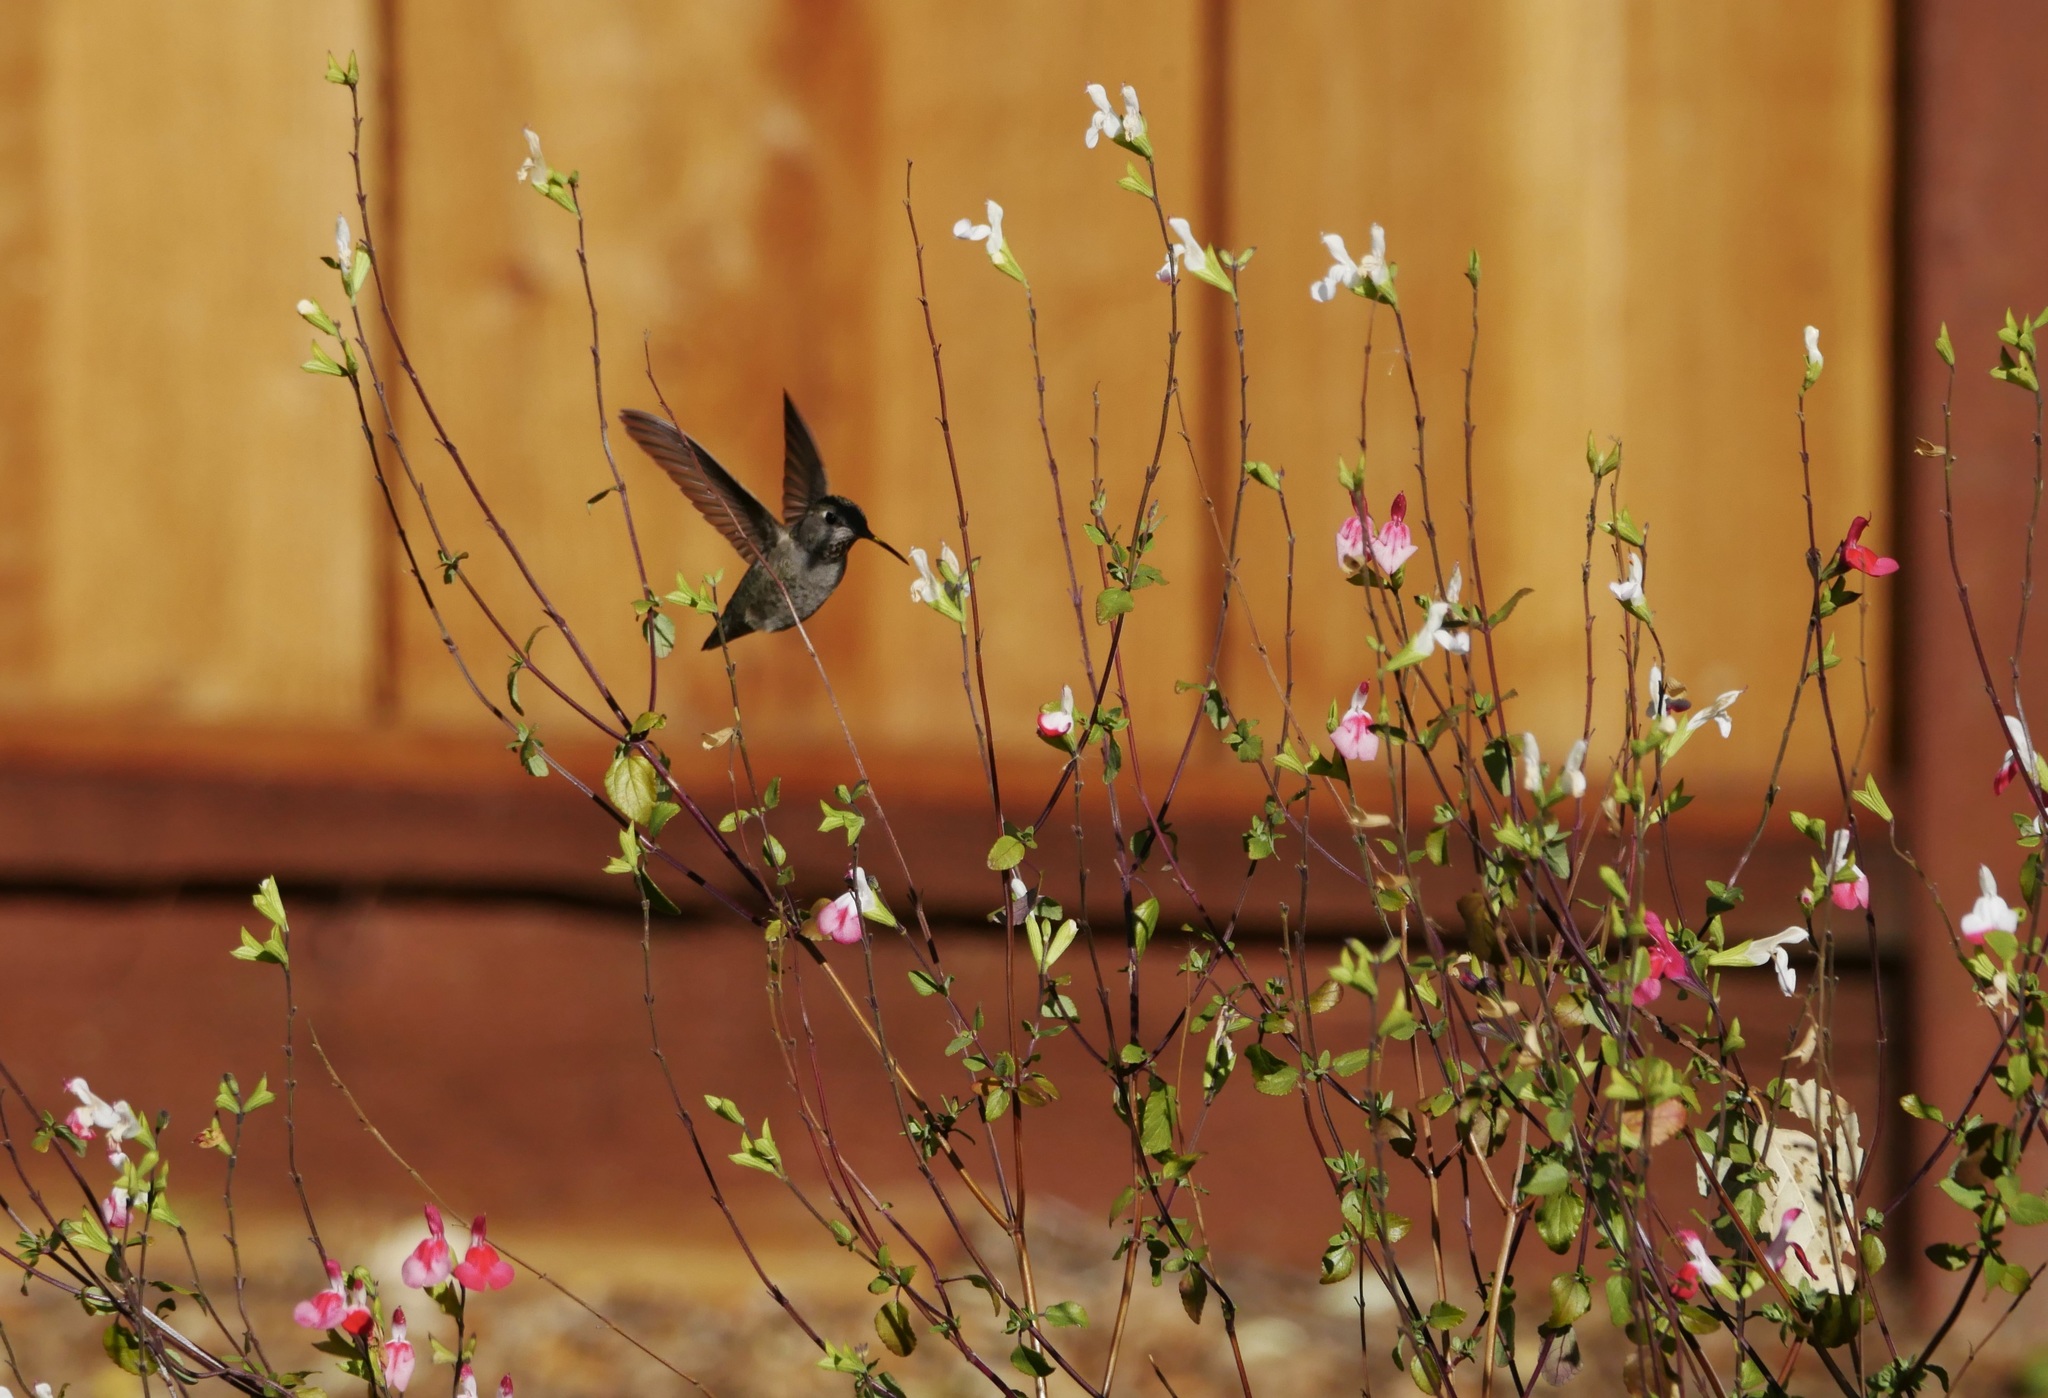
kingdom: Animalia
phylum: Chordata
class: Aves
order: Apodiformes
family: Trochilidae
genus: Calypte
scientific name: Calypte anna
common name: Anna's hummingbird
